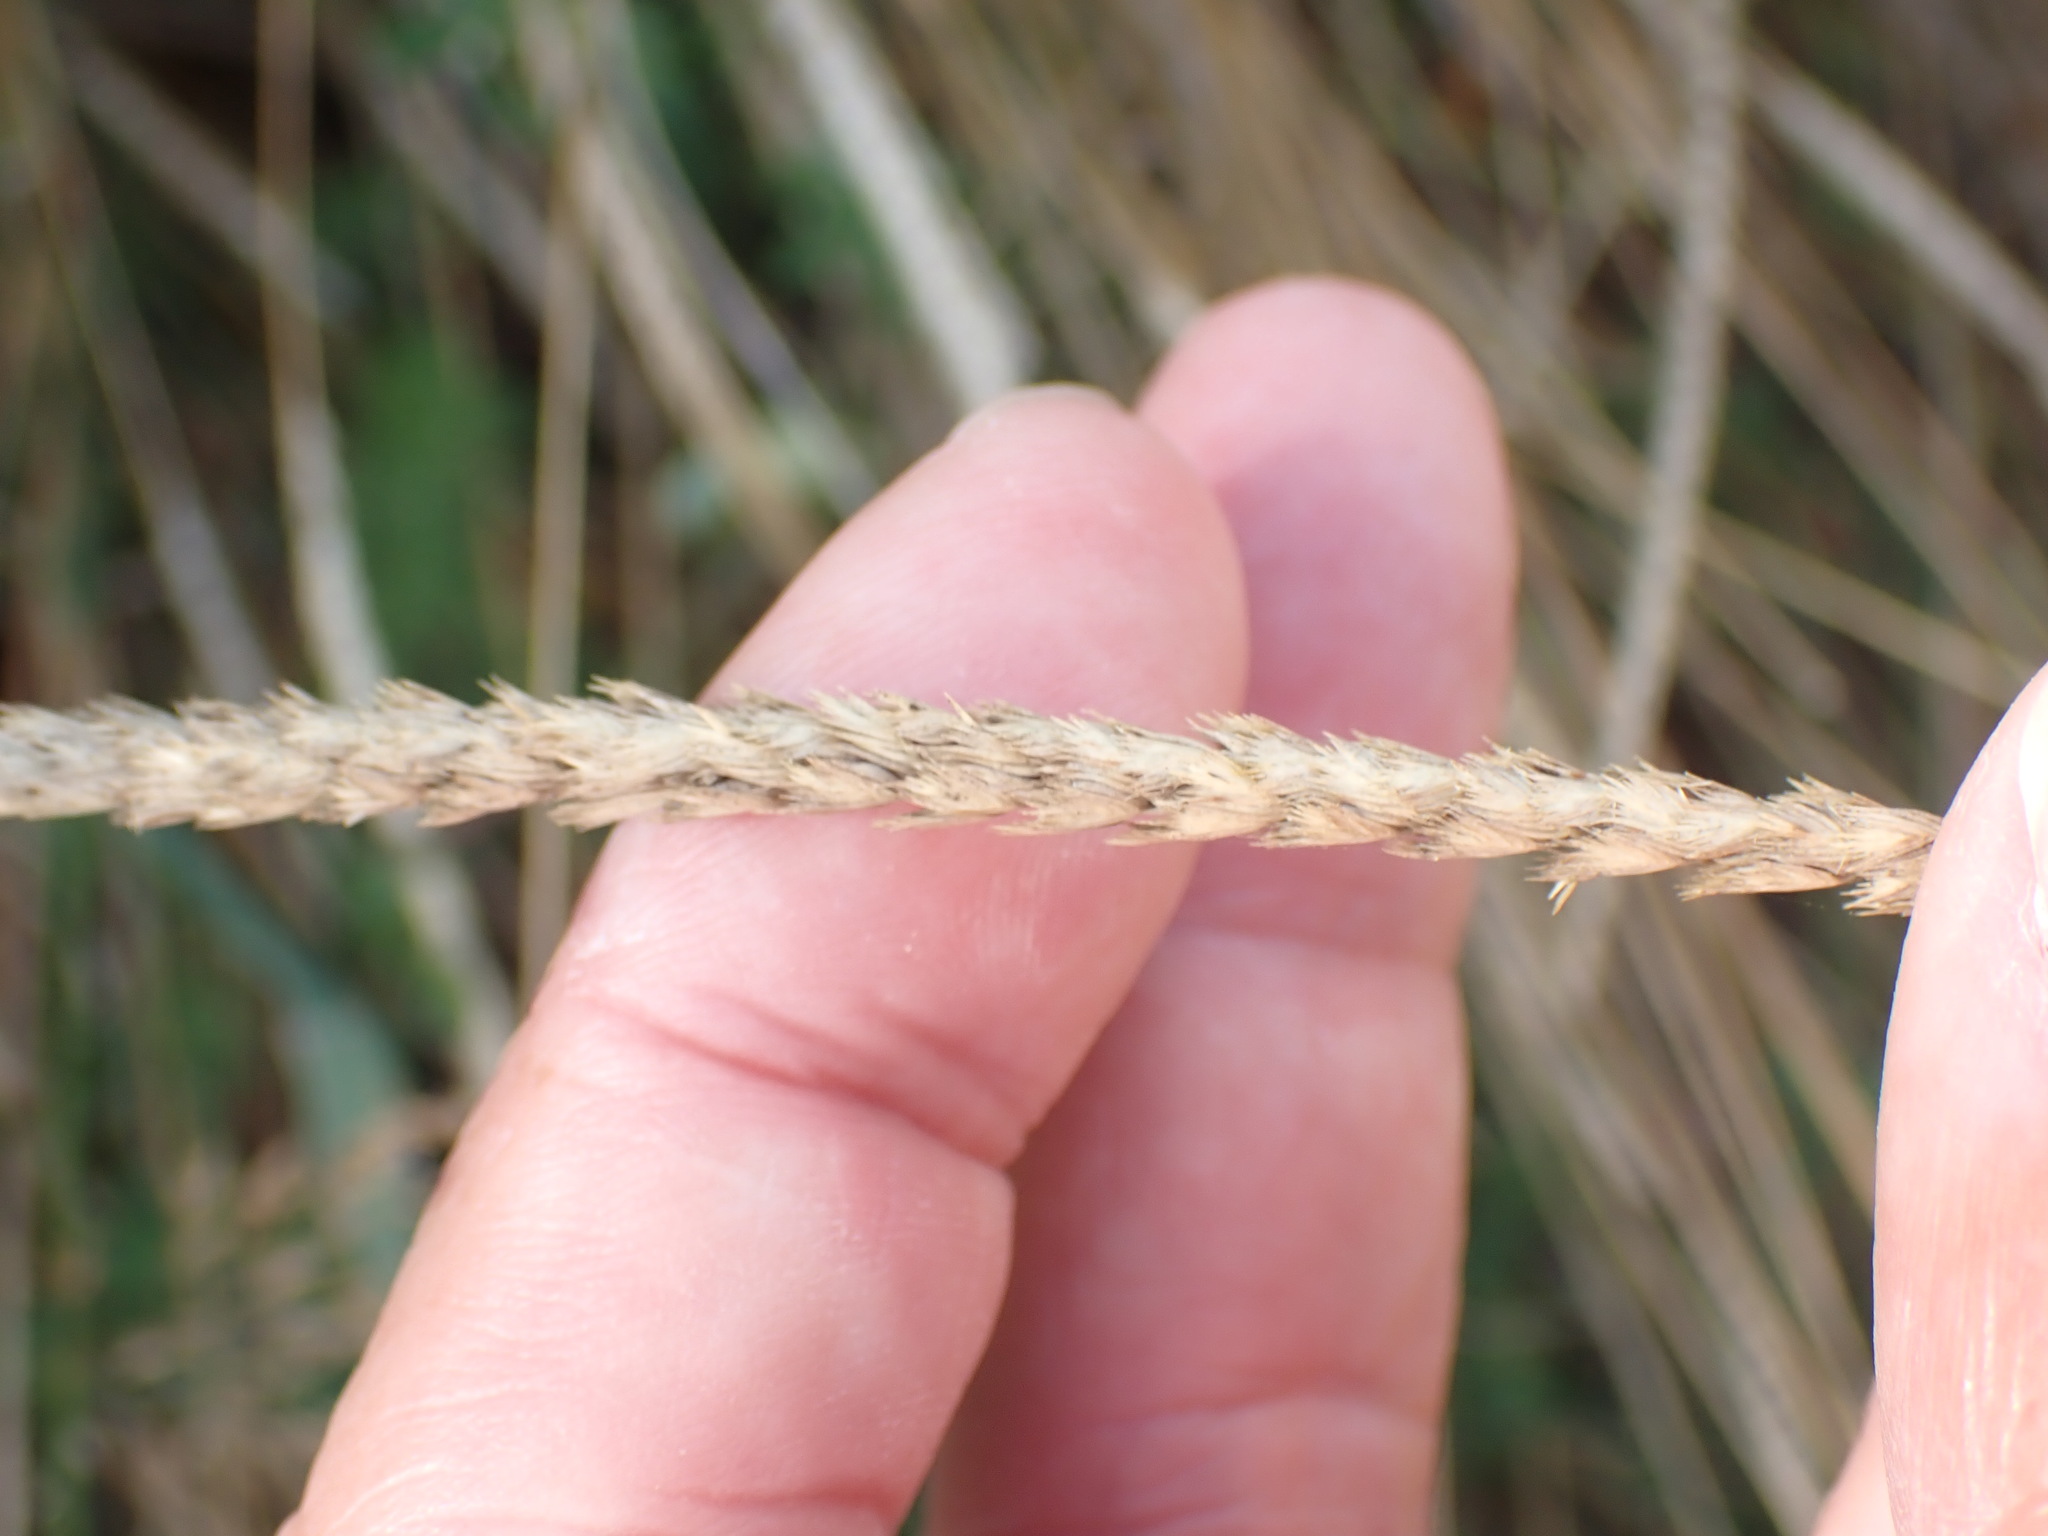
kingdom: Plantae
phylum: Tracheophyta
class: Liliopsida
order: Poales
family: Poaceae
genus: Cynosurus
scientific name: Cynosurus cristatus
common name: Crested dog's-tail
